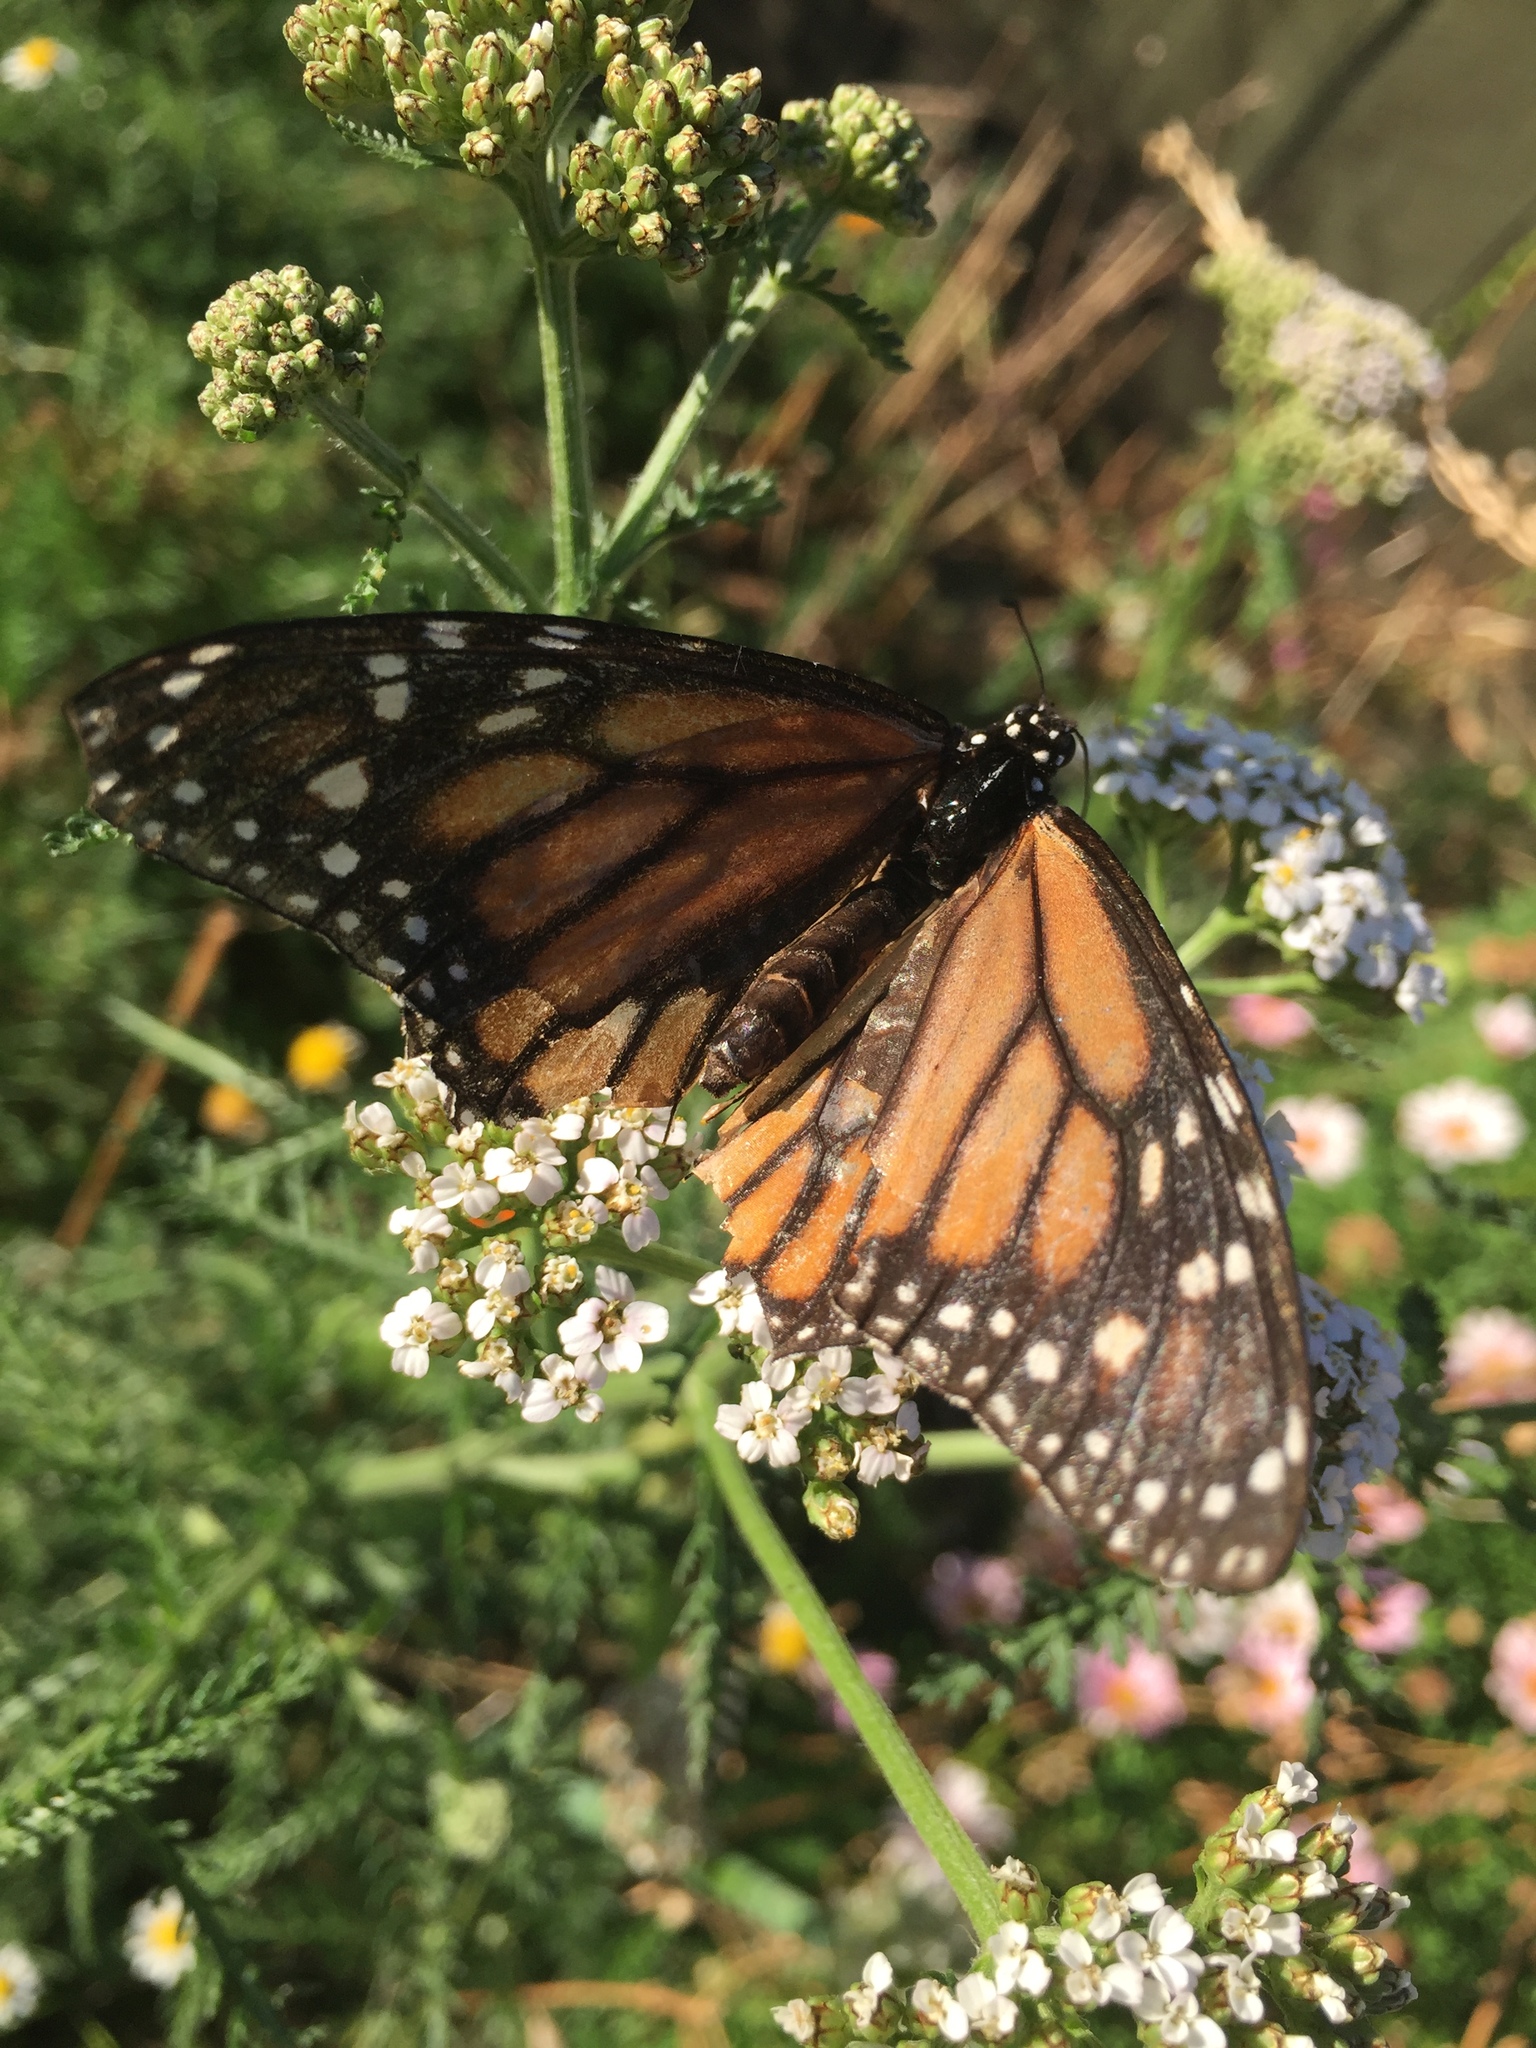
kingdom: Animalia
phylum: Arthropoda
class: Insecta
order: Lepidoptera
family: Nymphalidae
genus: Danaus
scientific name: Danaus plexippus
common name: Monarch
